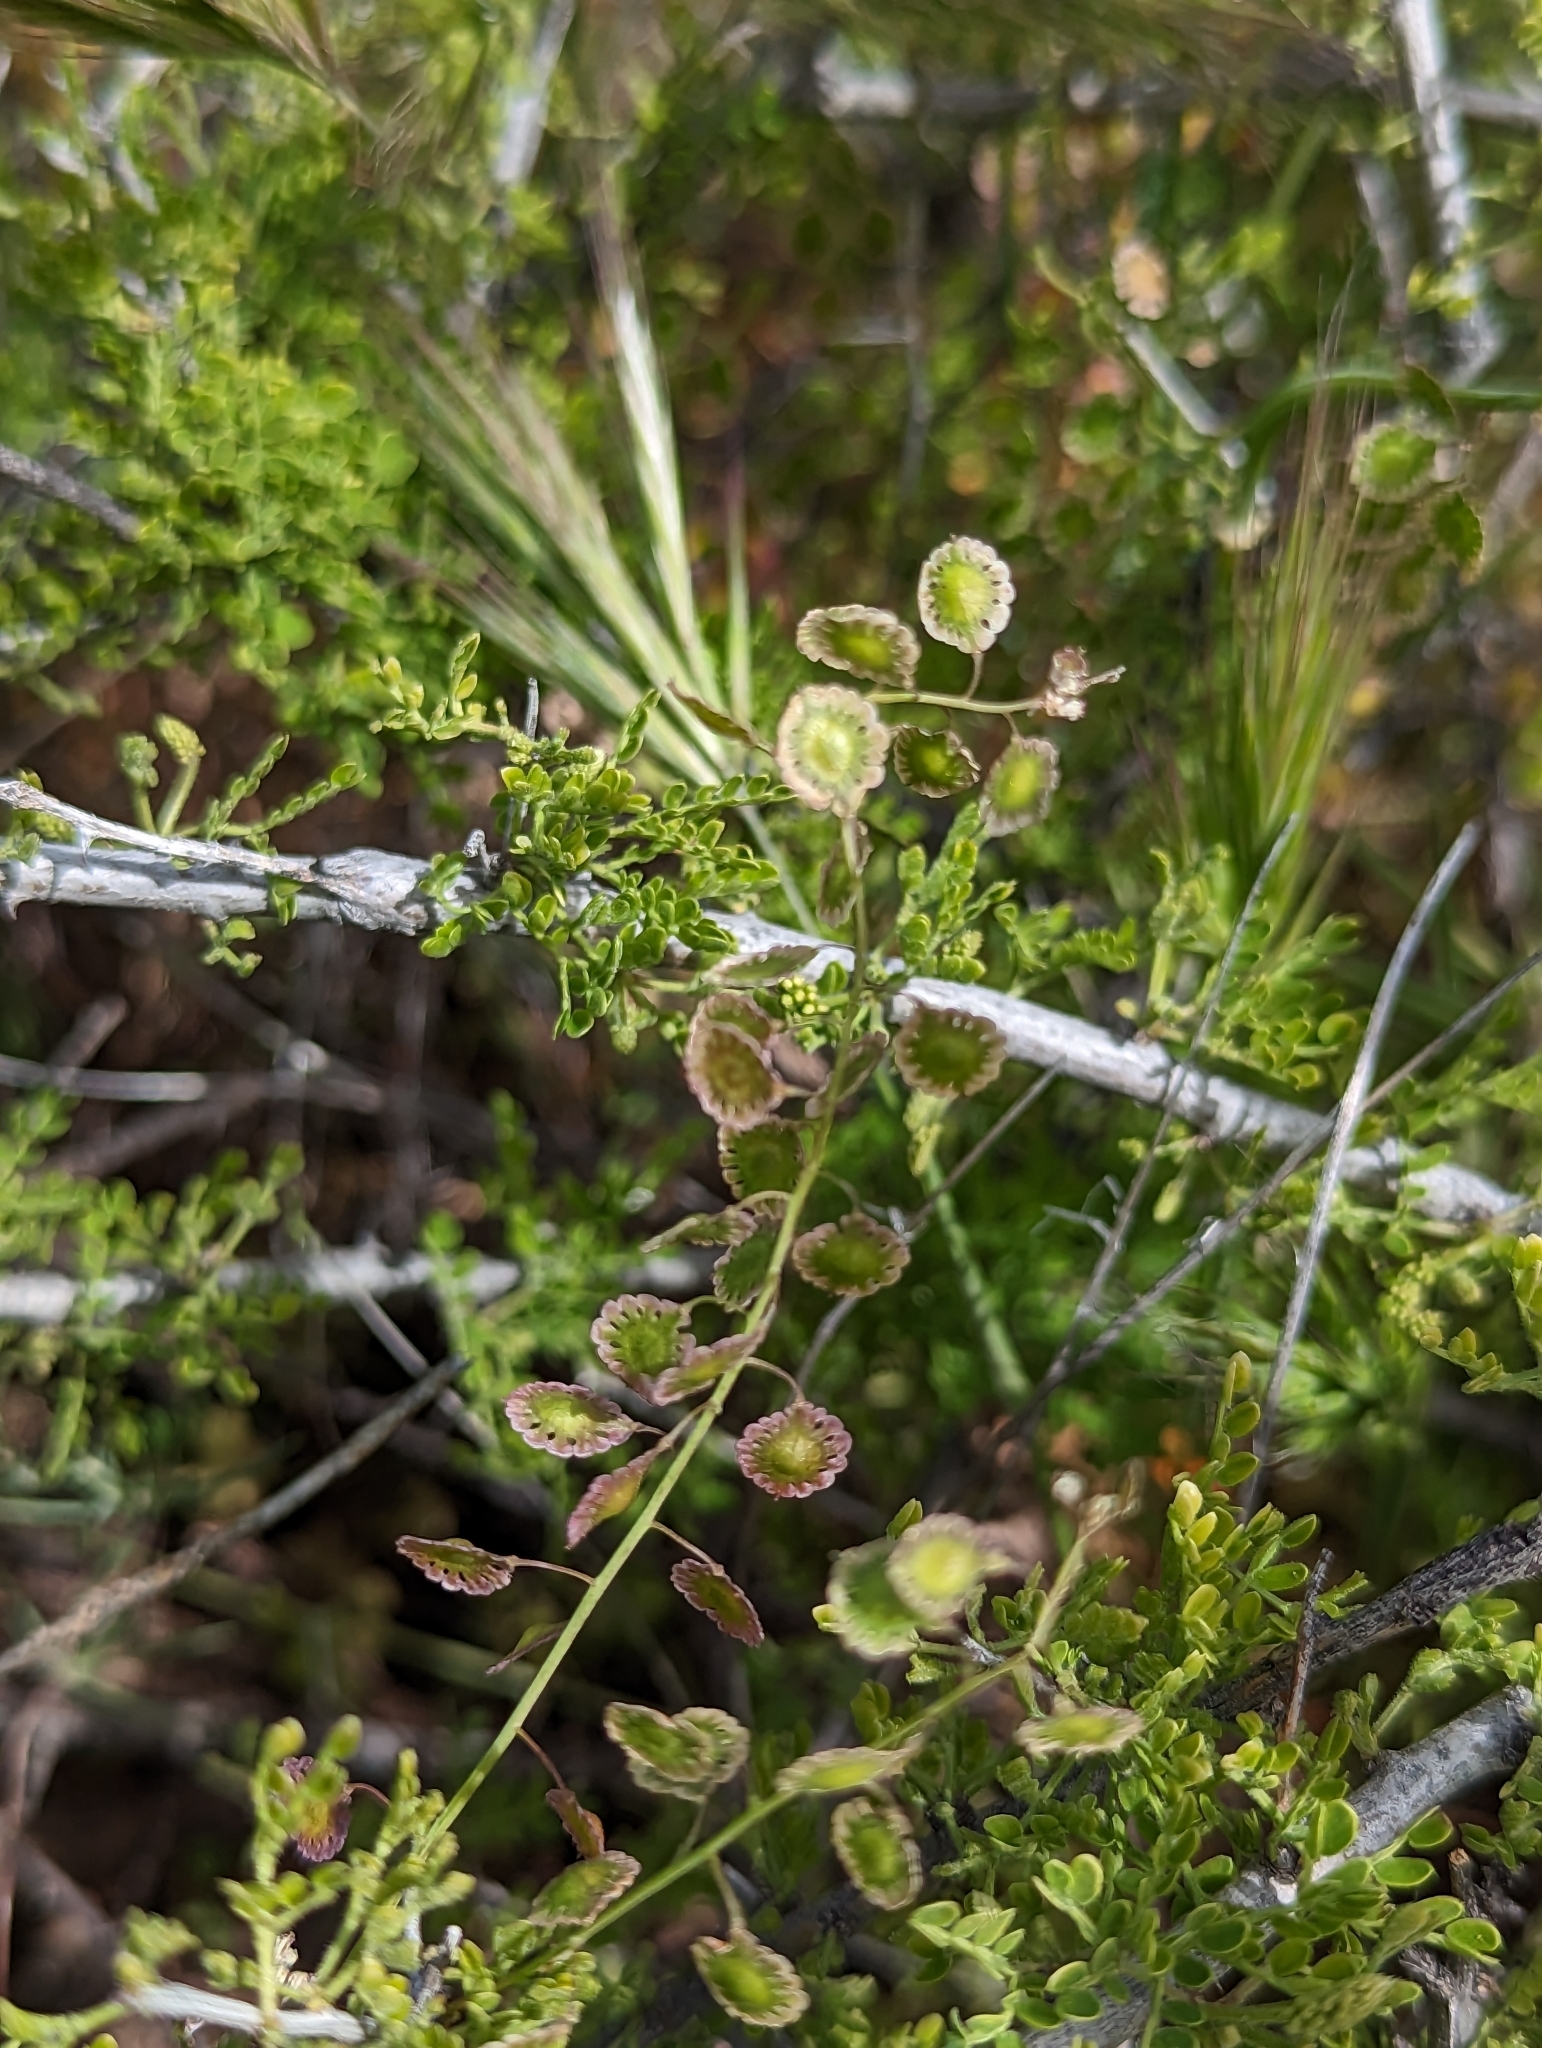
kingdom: Plantae
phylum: Tracheophyta
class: Magnoliopsida
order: Brassicales
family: Brassicaceae
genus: Thysanocarpus
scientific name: Thysanocarpus curvipes
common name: Sand fringepod
